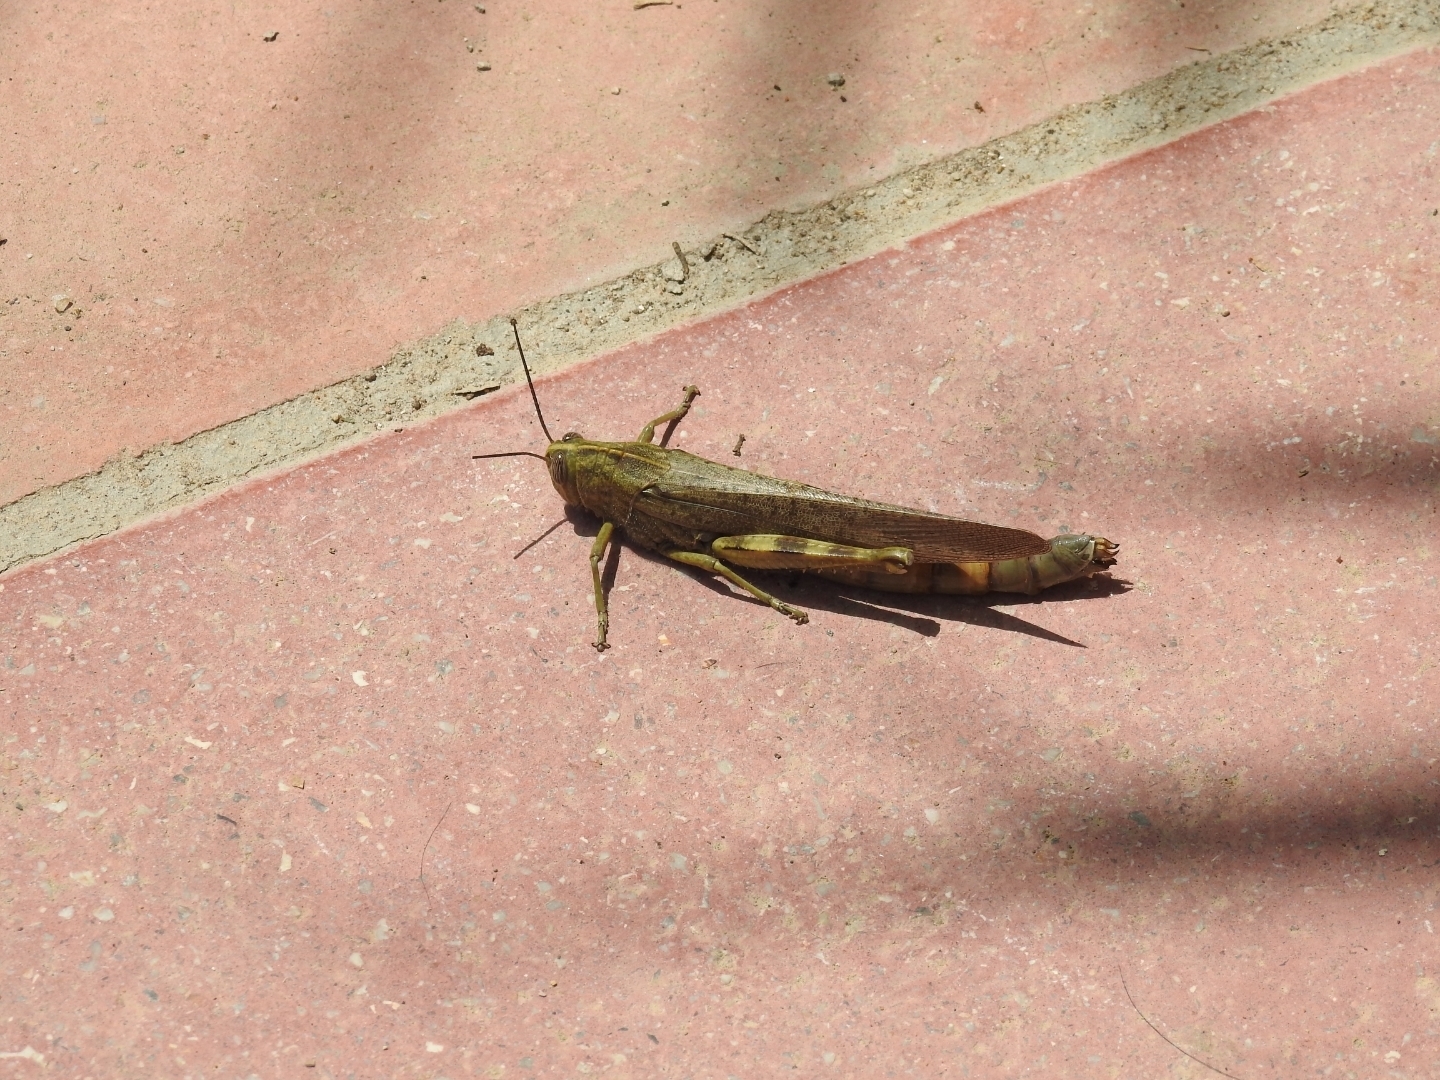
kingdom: Animalia
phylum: Arthropoda
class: Insecta
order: Orthoptera
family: Acrididae
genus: Anacridium
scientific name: Anacridium aegyptium
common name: Egyptian grasshopper
